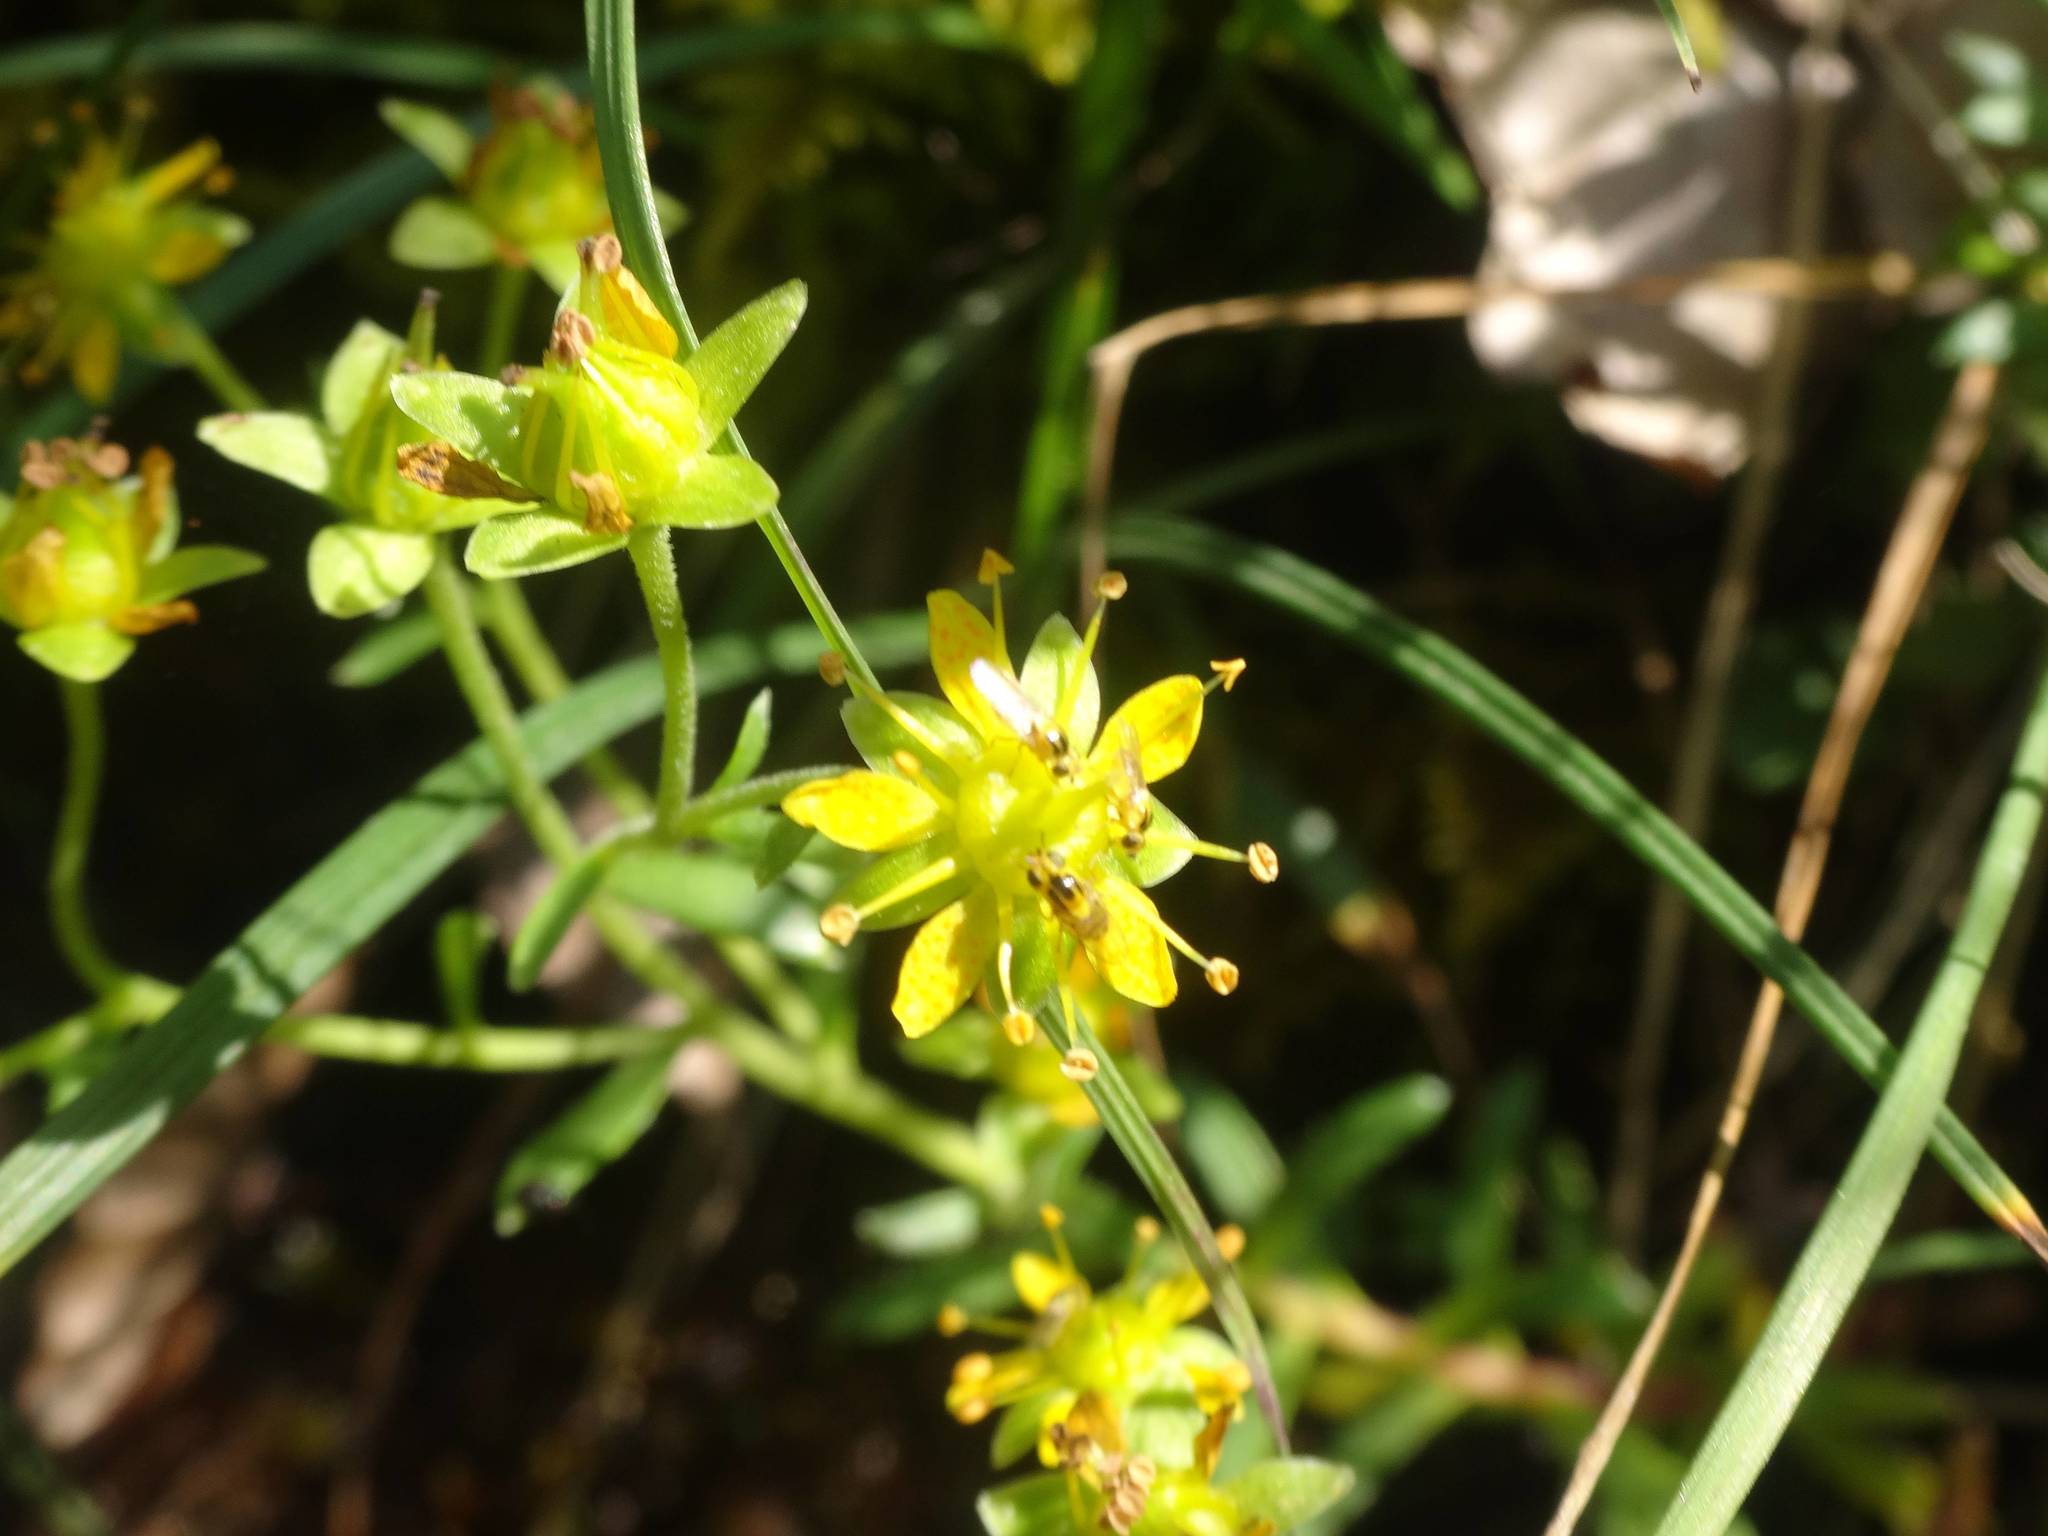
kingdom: Plantae
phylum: Tracheophyta
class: Magnoliopsida
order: Saxifragales
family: Saxifragaceae
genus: Saxifraga
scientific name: Saxifraga aizoides
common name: Yellow mountain saxifrage
